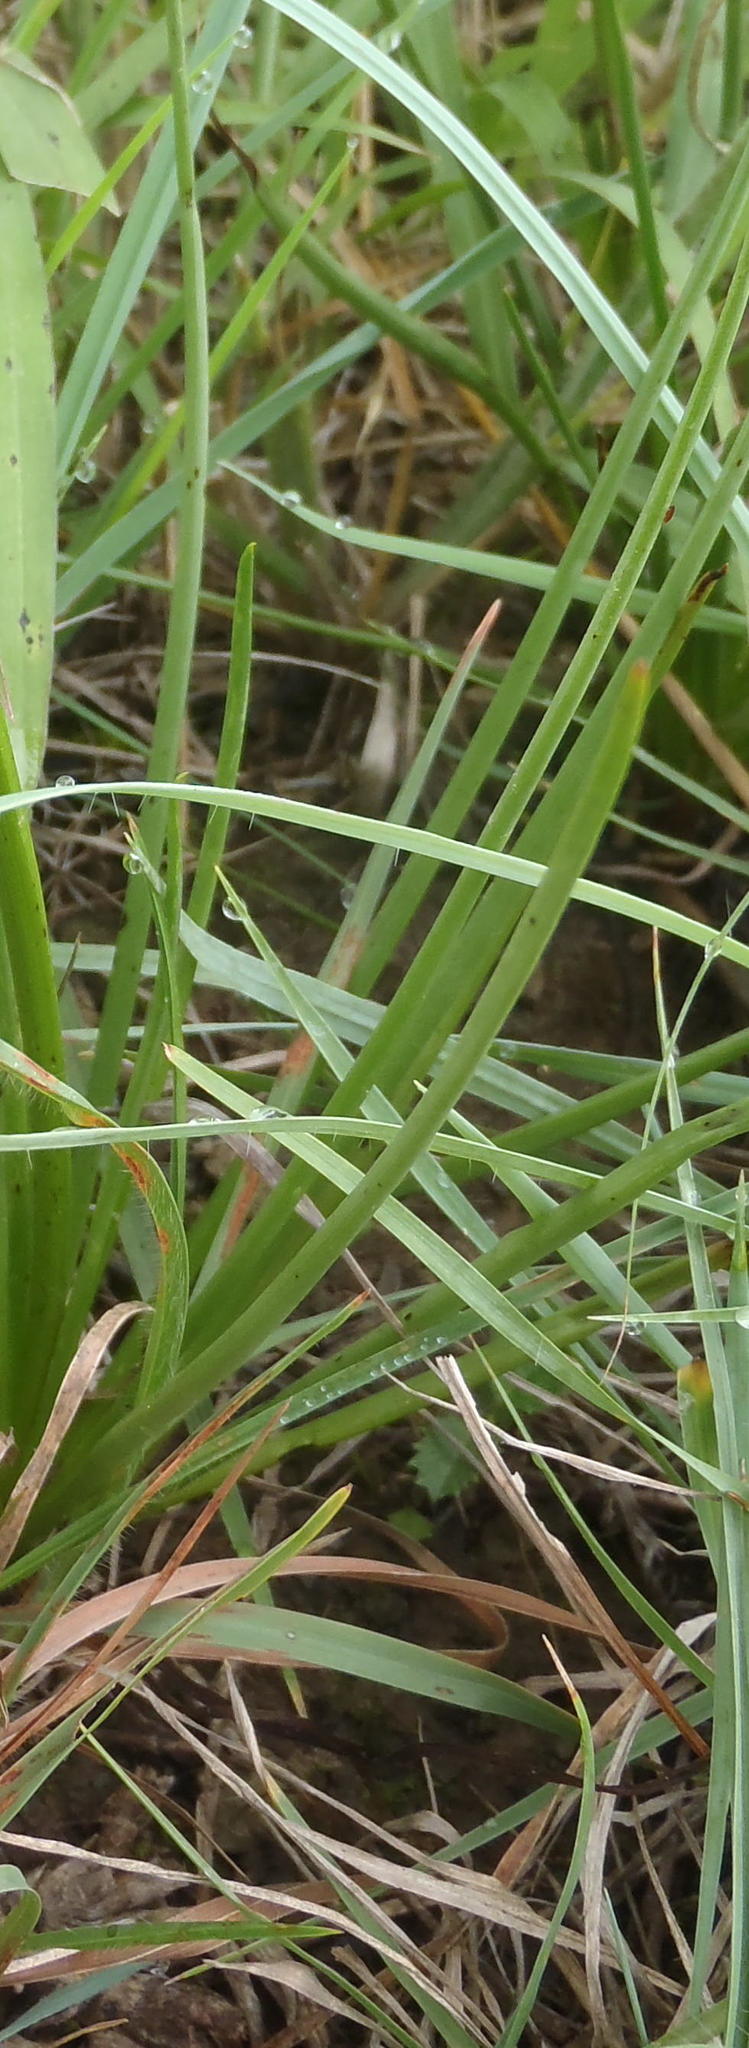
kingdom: Plantae
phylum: Tracheophyta
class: Liliopsida
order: Asparagales
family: Asphodelaceae
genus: Bulbine
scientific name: Bulbine abyssinica
